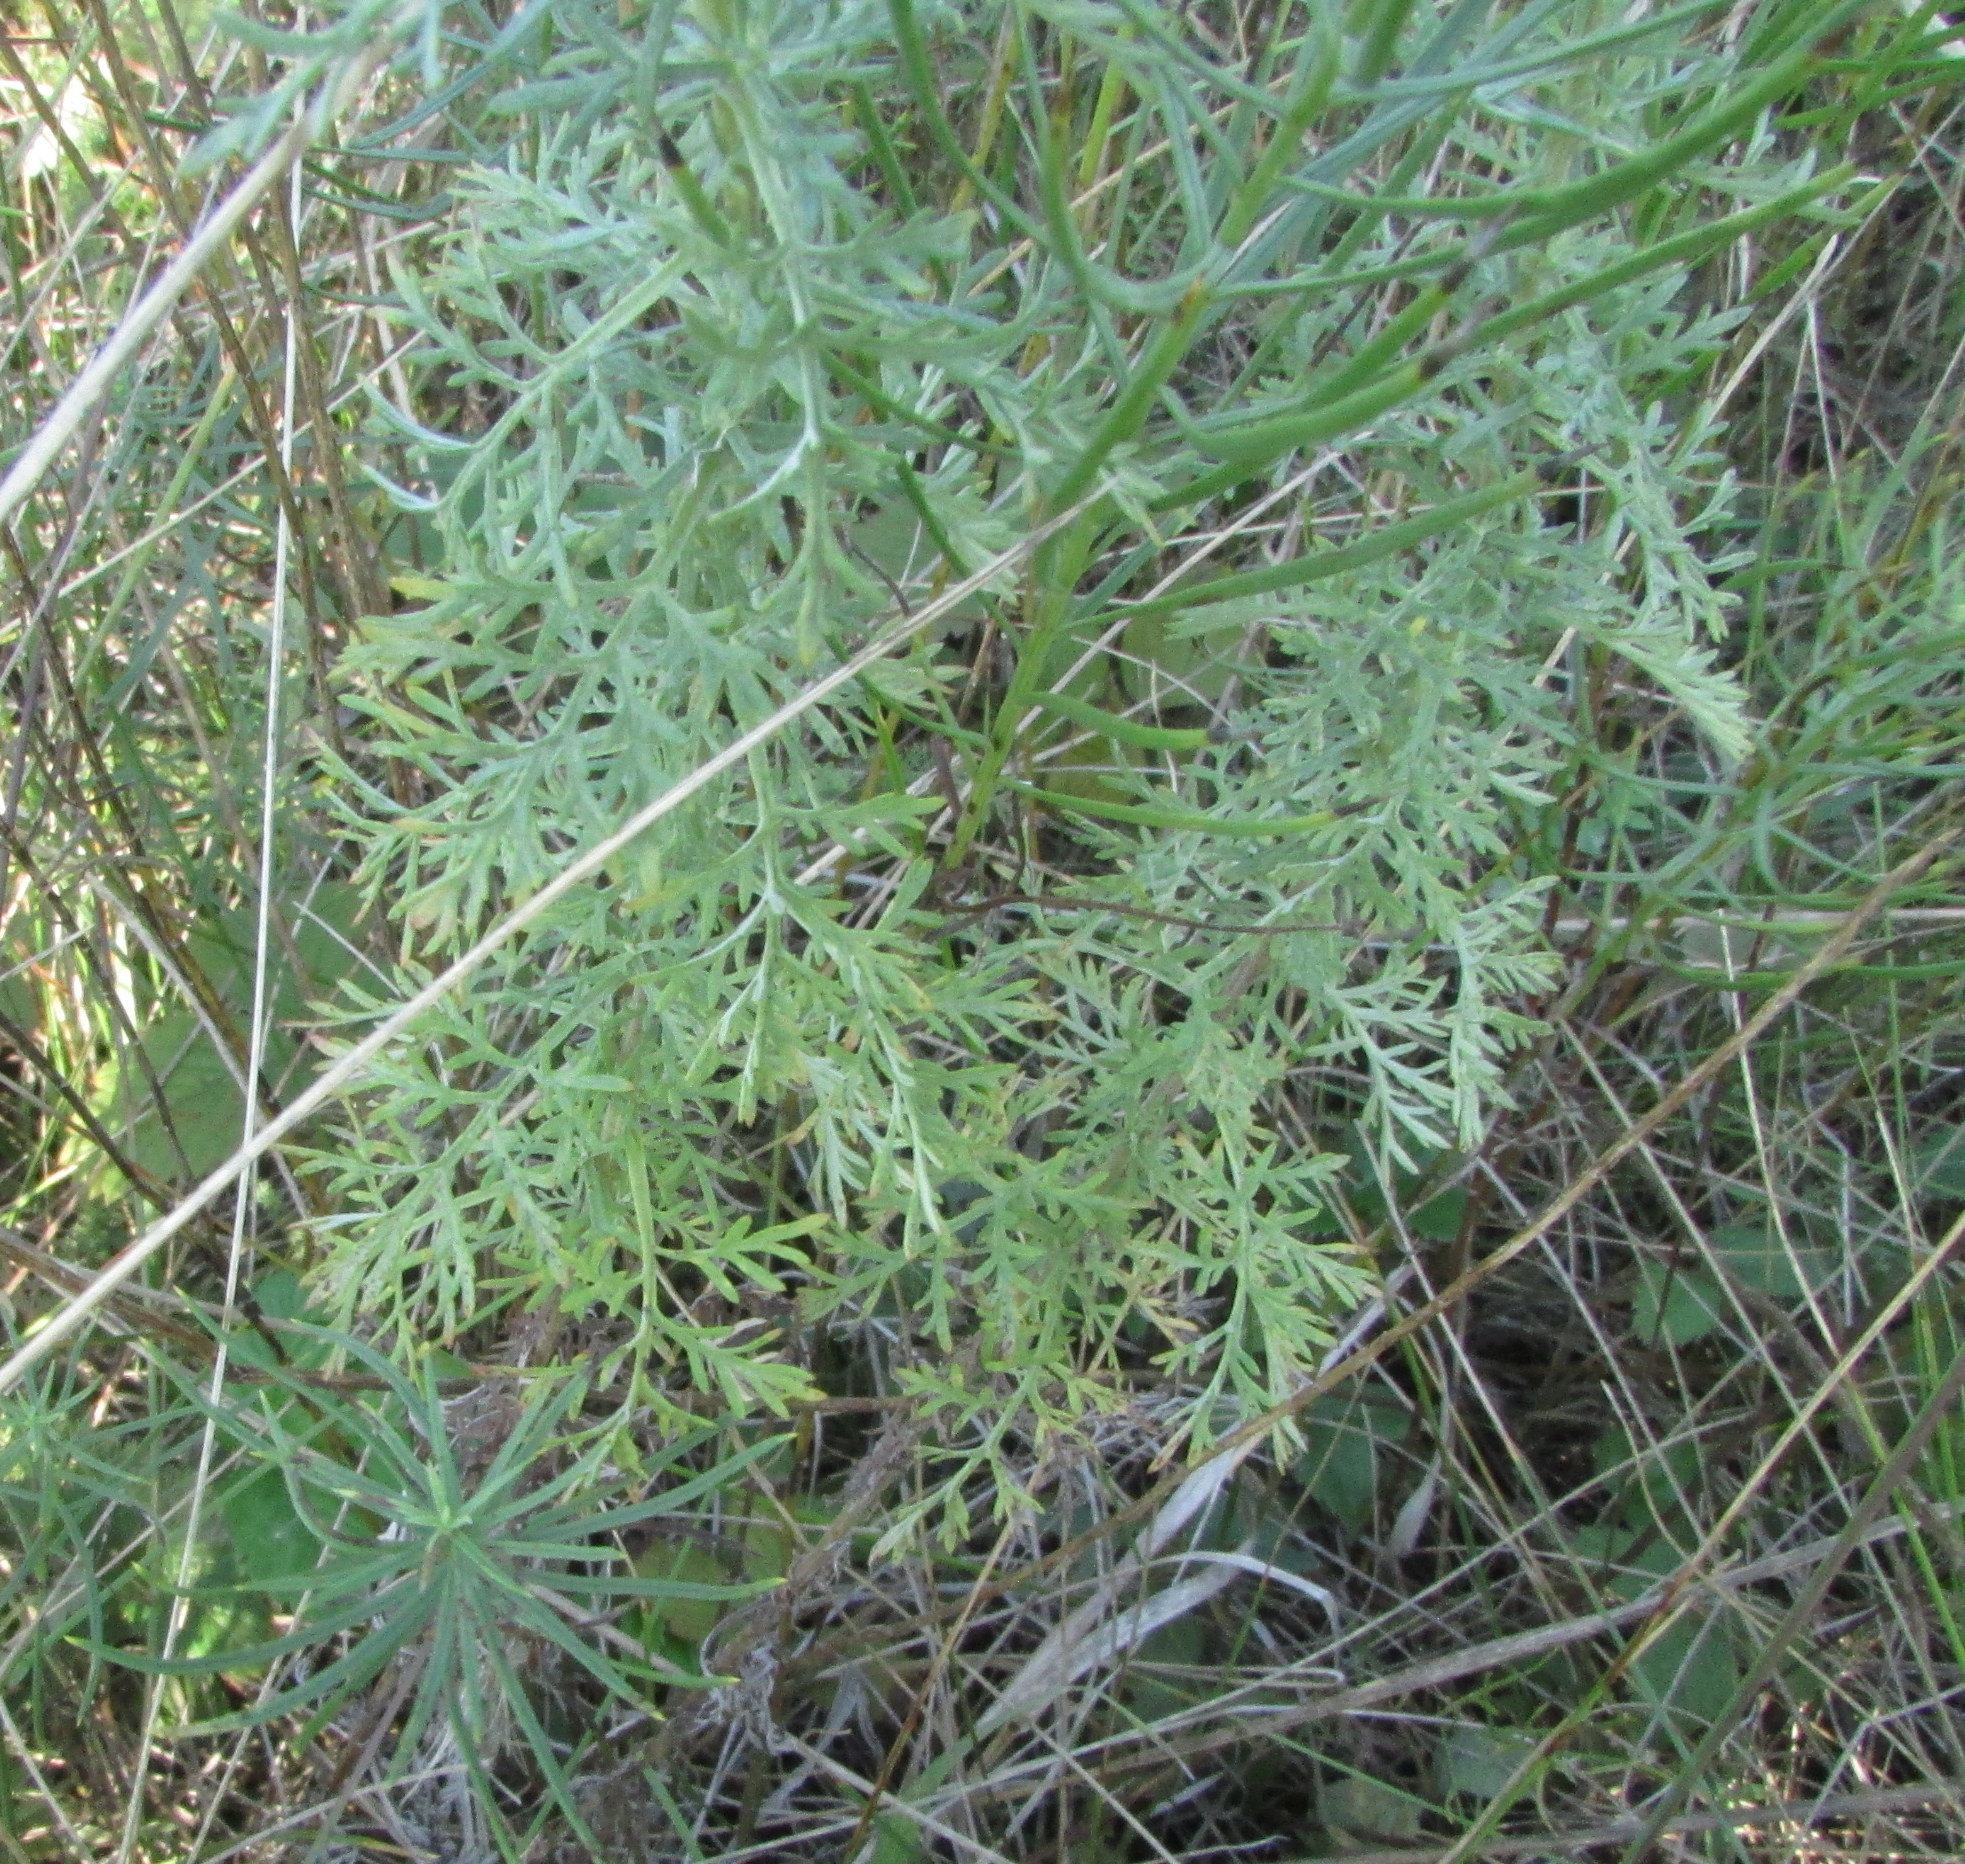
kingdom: Plantae
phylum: Tracheophyta
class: Magnoliopsida
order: Asterales
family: Asteraceae
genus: Artemisia
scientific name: Artemisia pontica
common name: Roman wormwood
